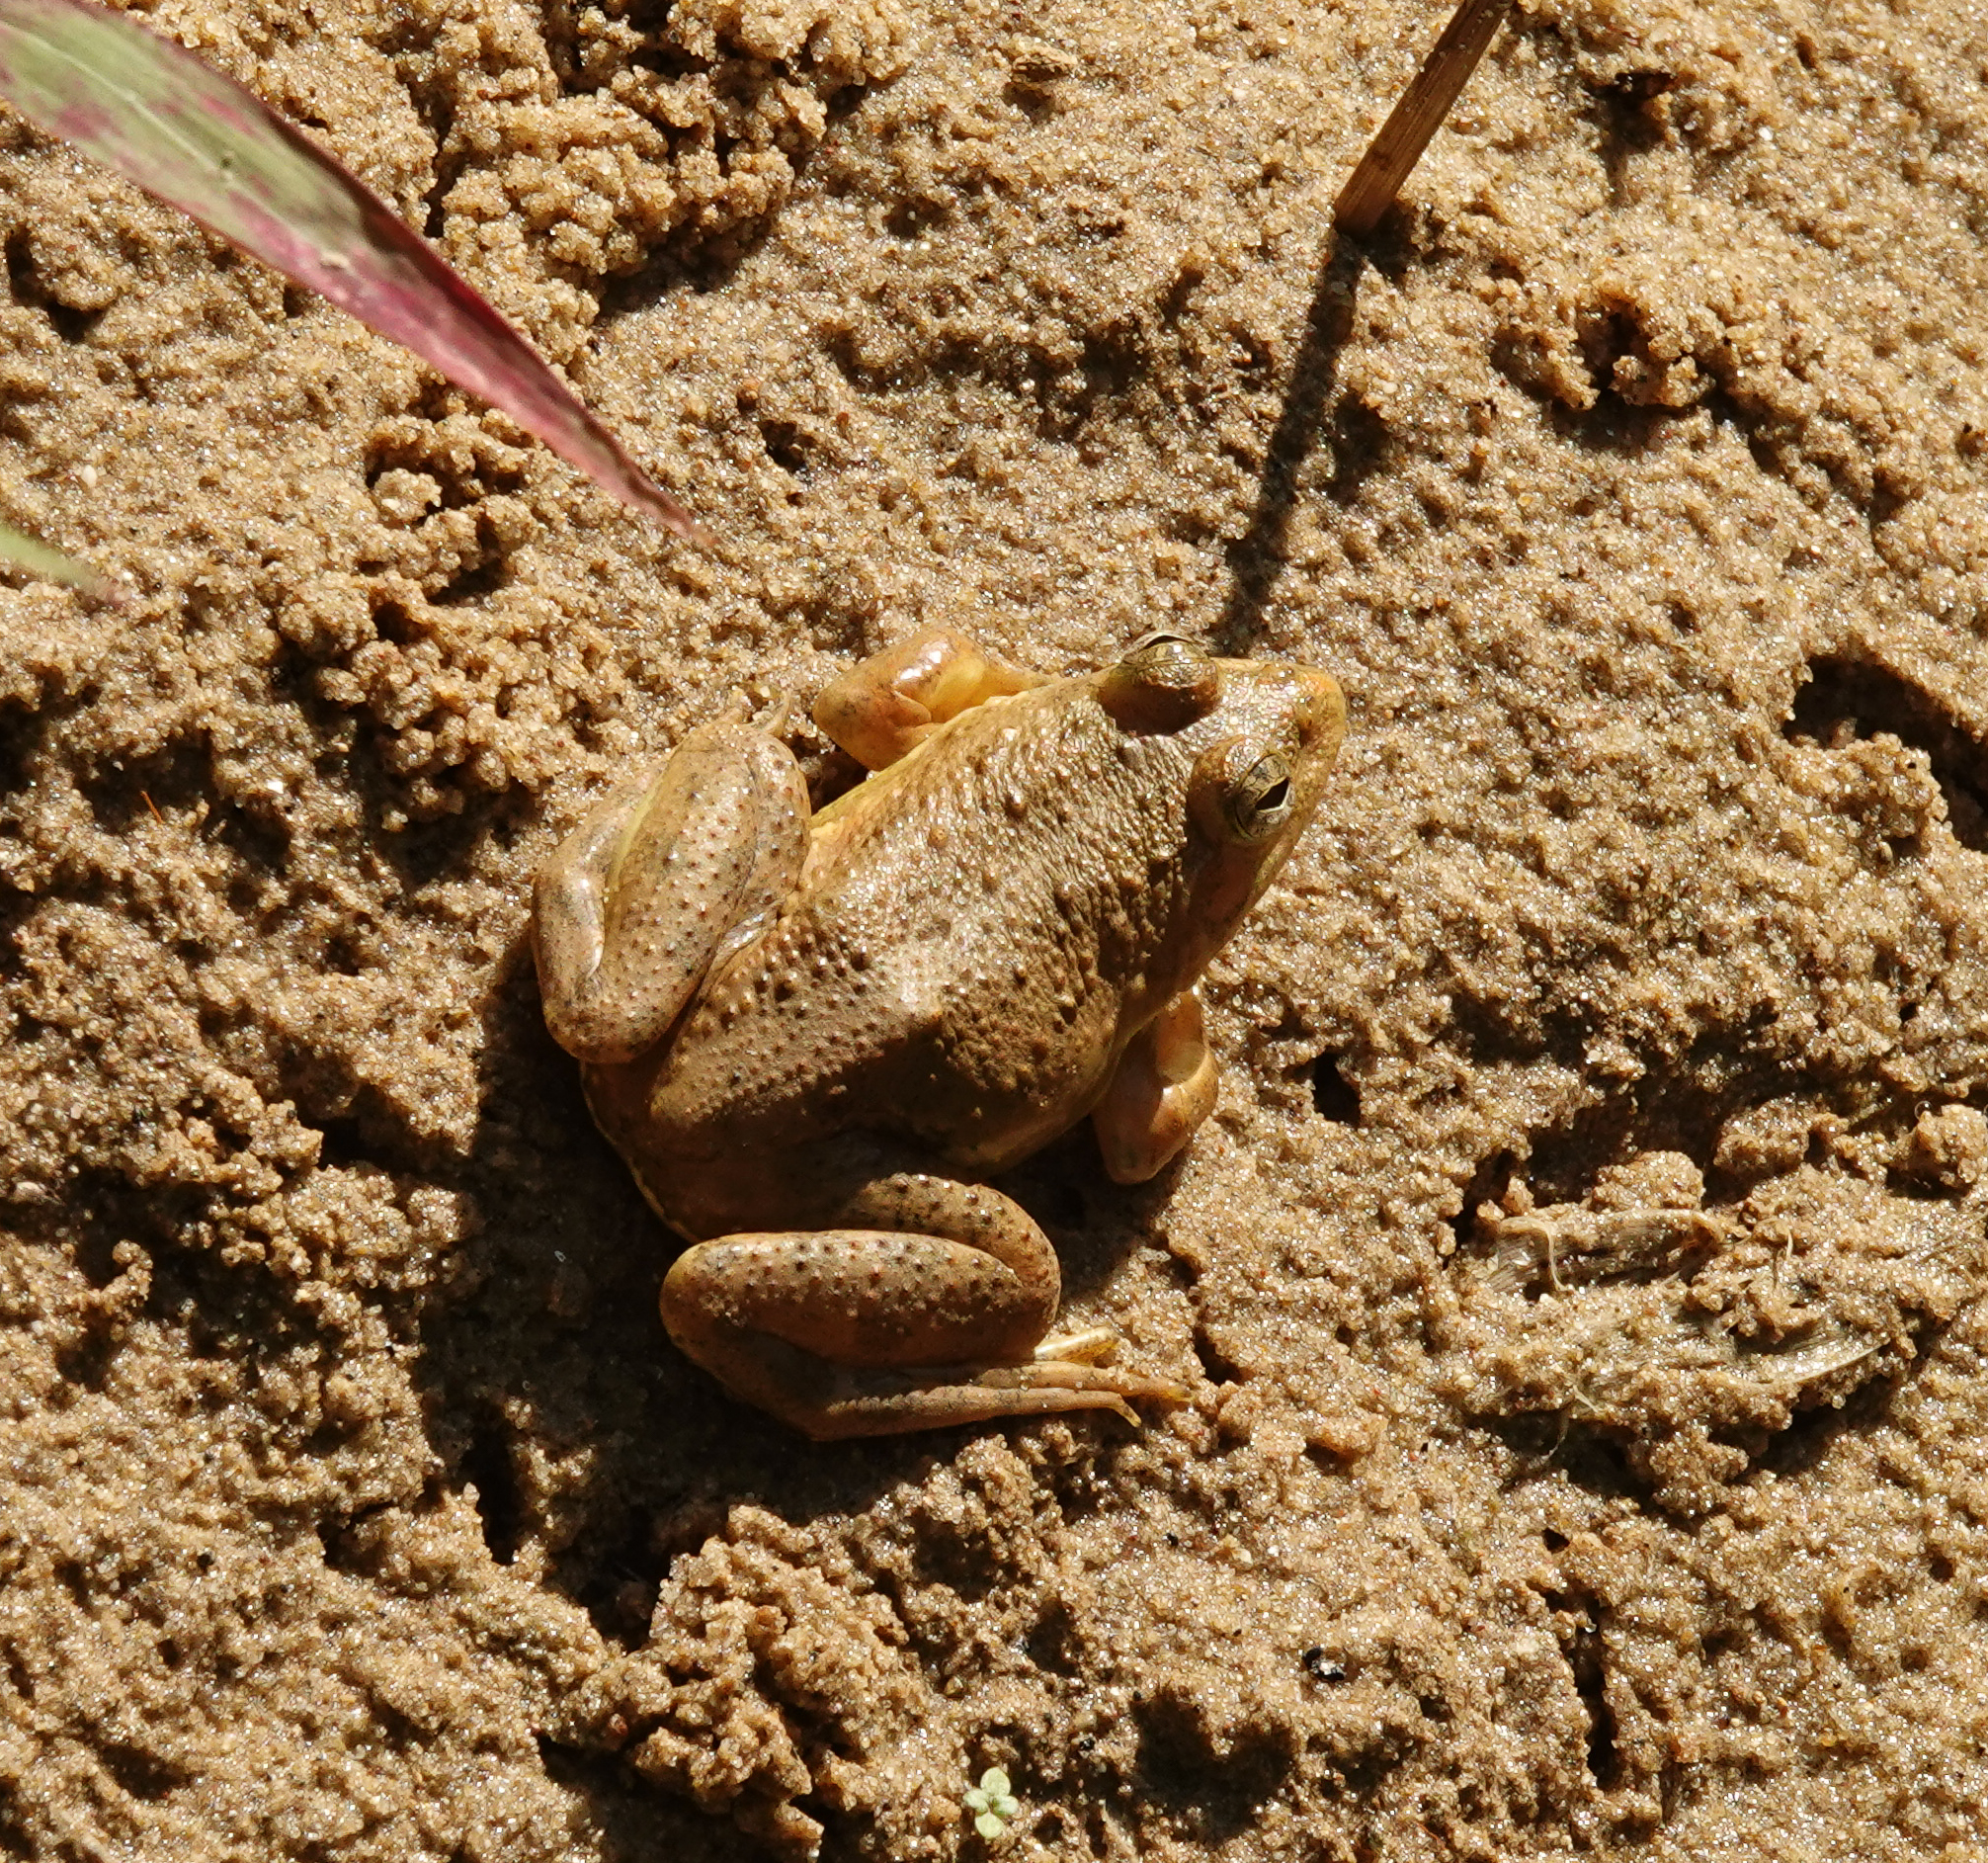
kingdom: Animalia
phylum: Chordata
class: Amphibia
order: Anura
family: Dicroglossidae
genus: Euphlyctis
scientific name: Euphlyctis cyanophlyctis
